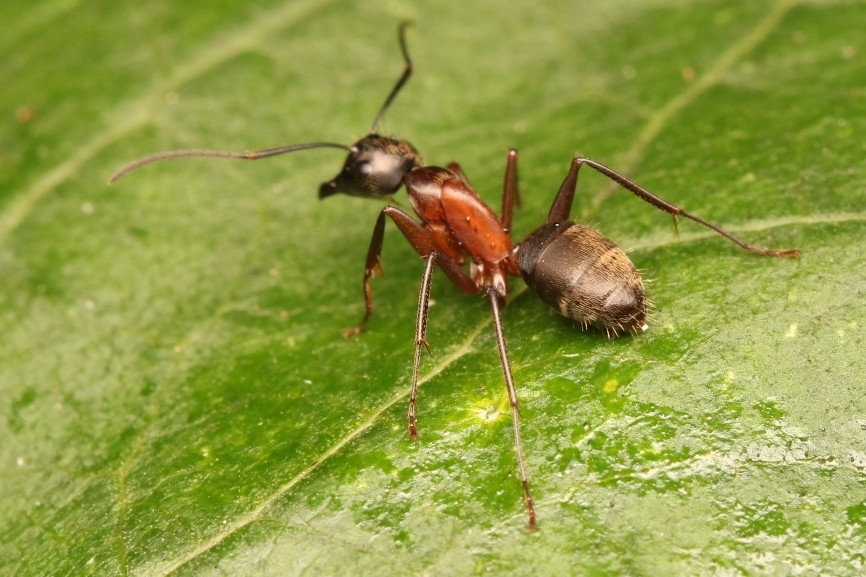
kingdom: Animalia
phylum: Arthropoda
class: Insecta
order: Hymenoptera
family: Formicidae
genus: Camponotus
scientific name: Camponotus chromaiodes
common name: Red carpenter ant
